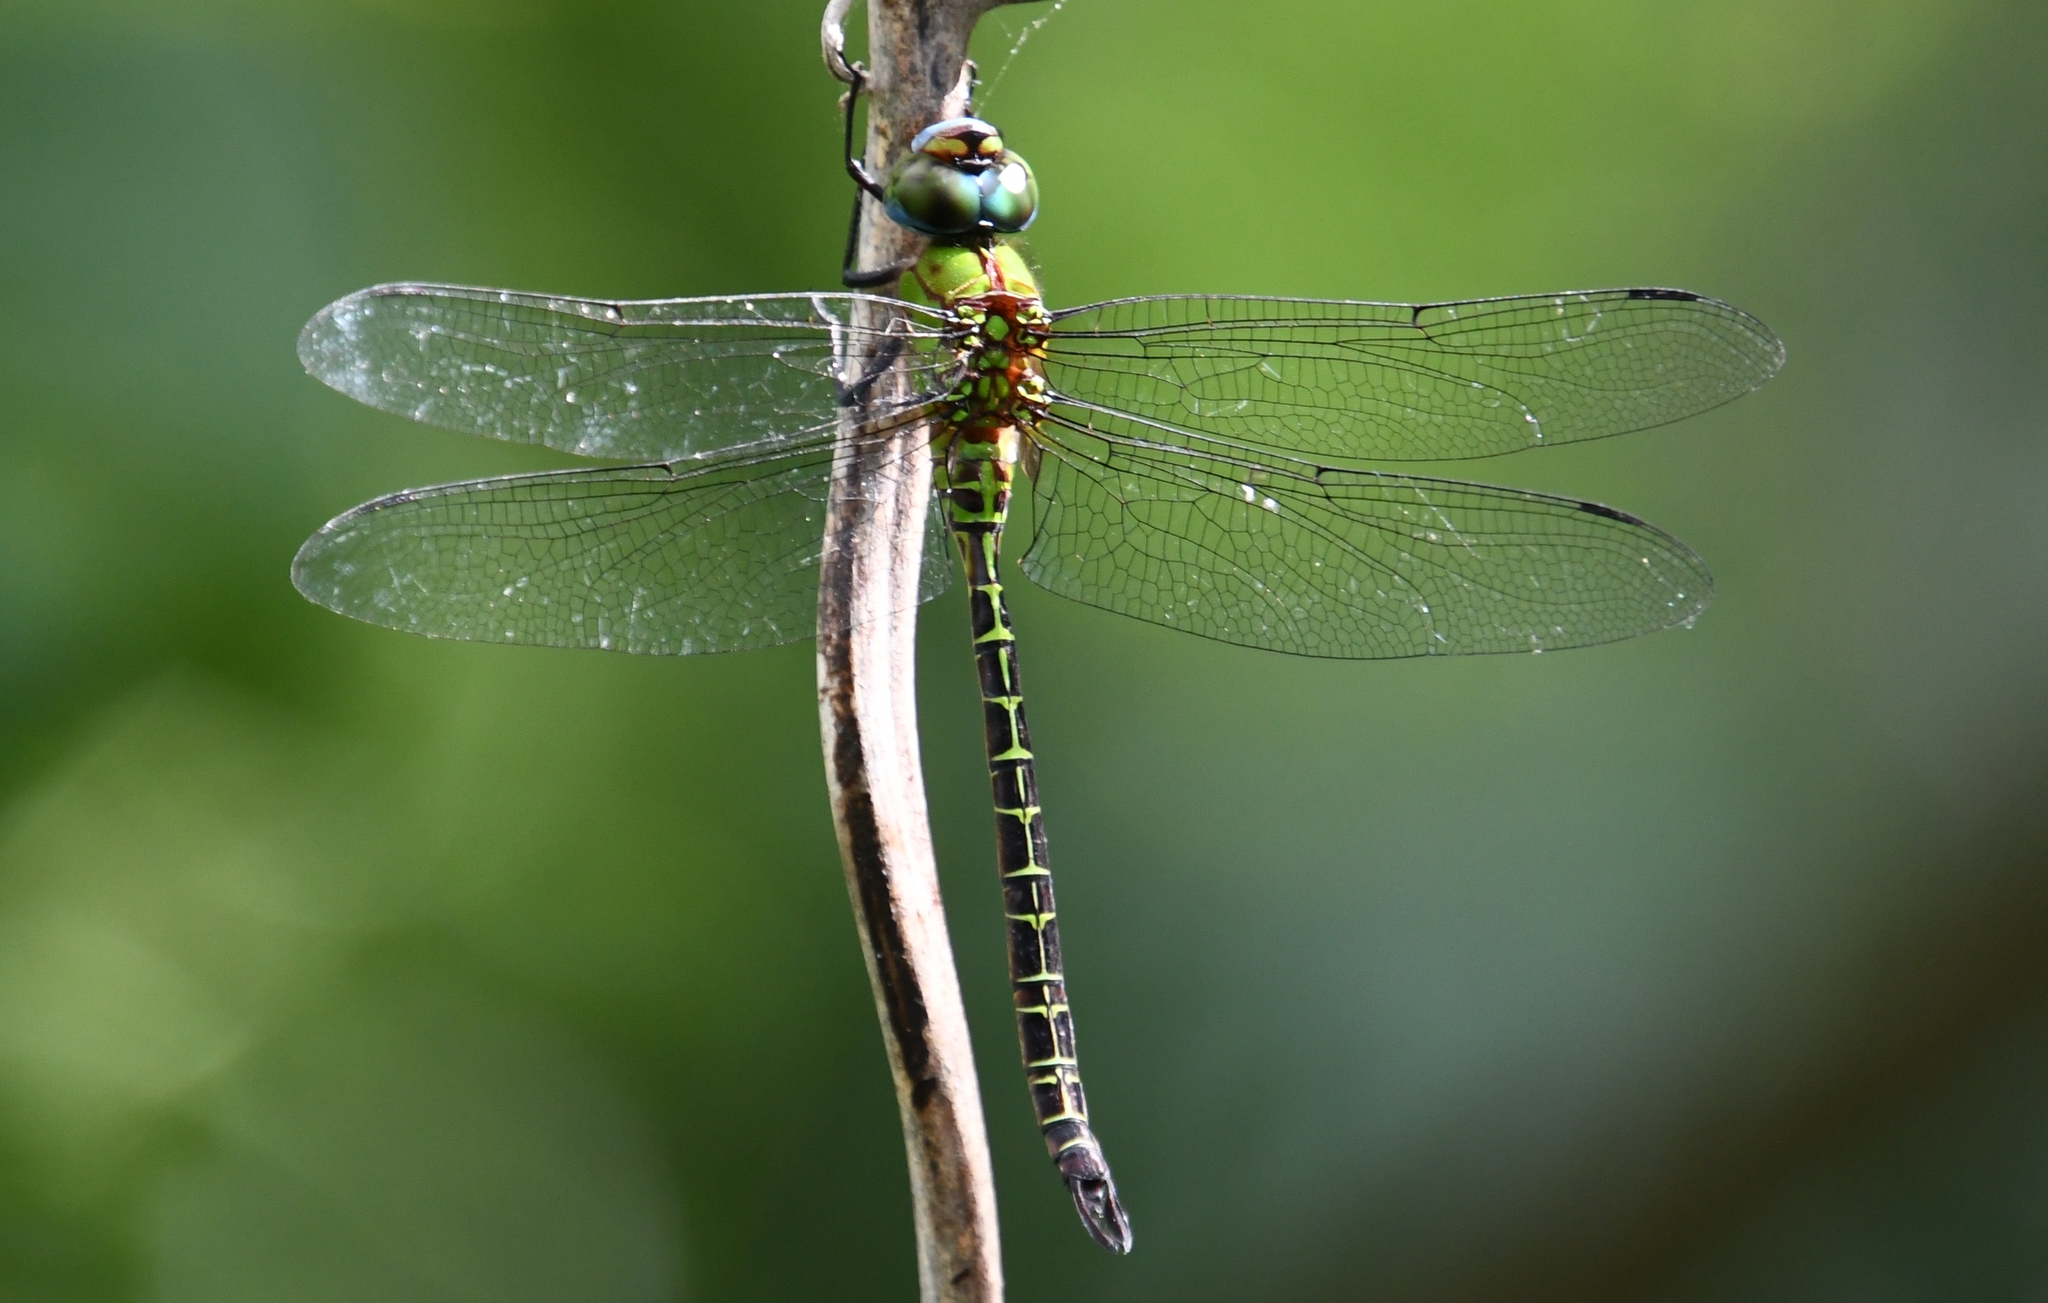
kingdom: Animalia
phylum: Arthropoda
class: Insecta
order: Odonata
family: Aeshnidae
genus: Coryphaeschna
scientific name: Coryphaeschna adnexa
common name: Blue-faced darner
